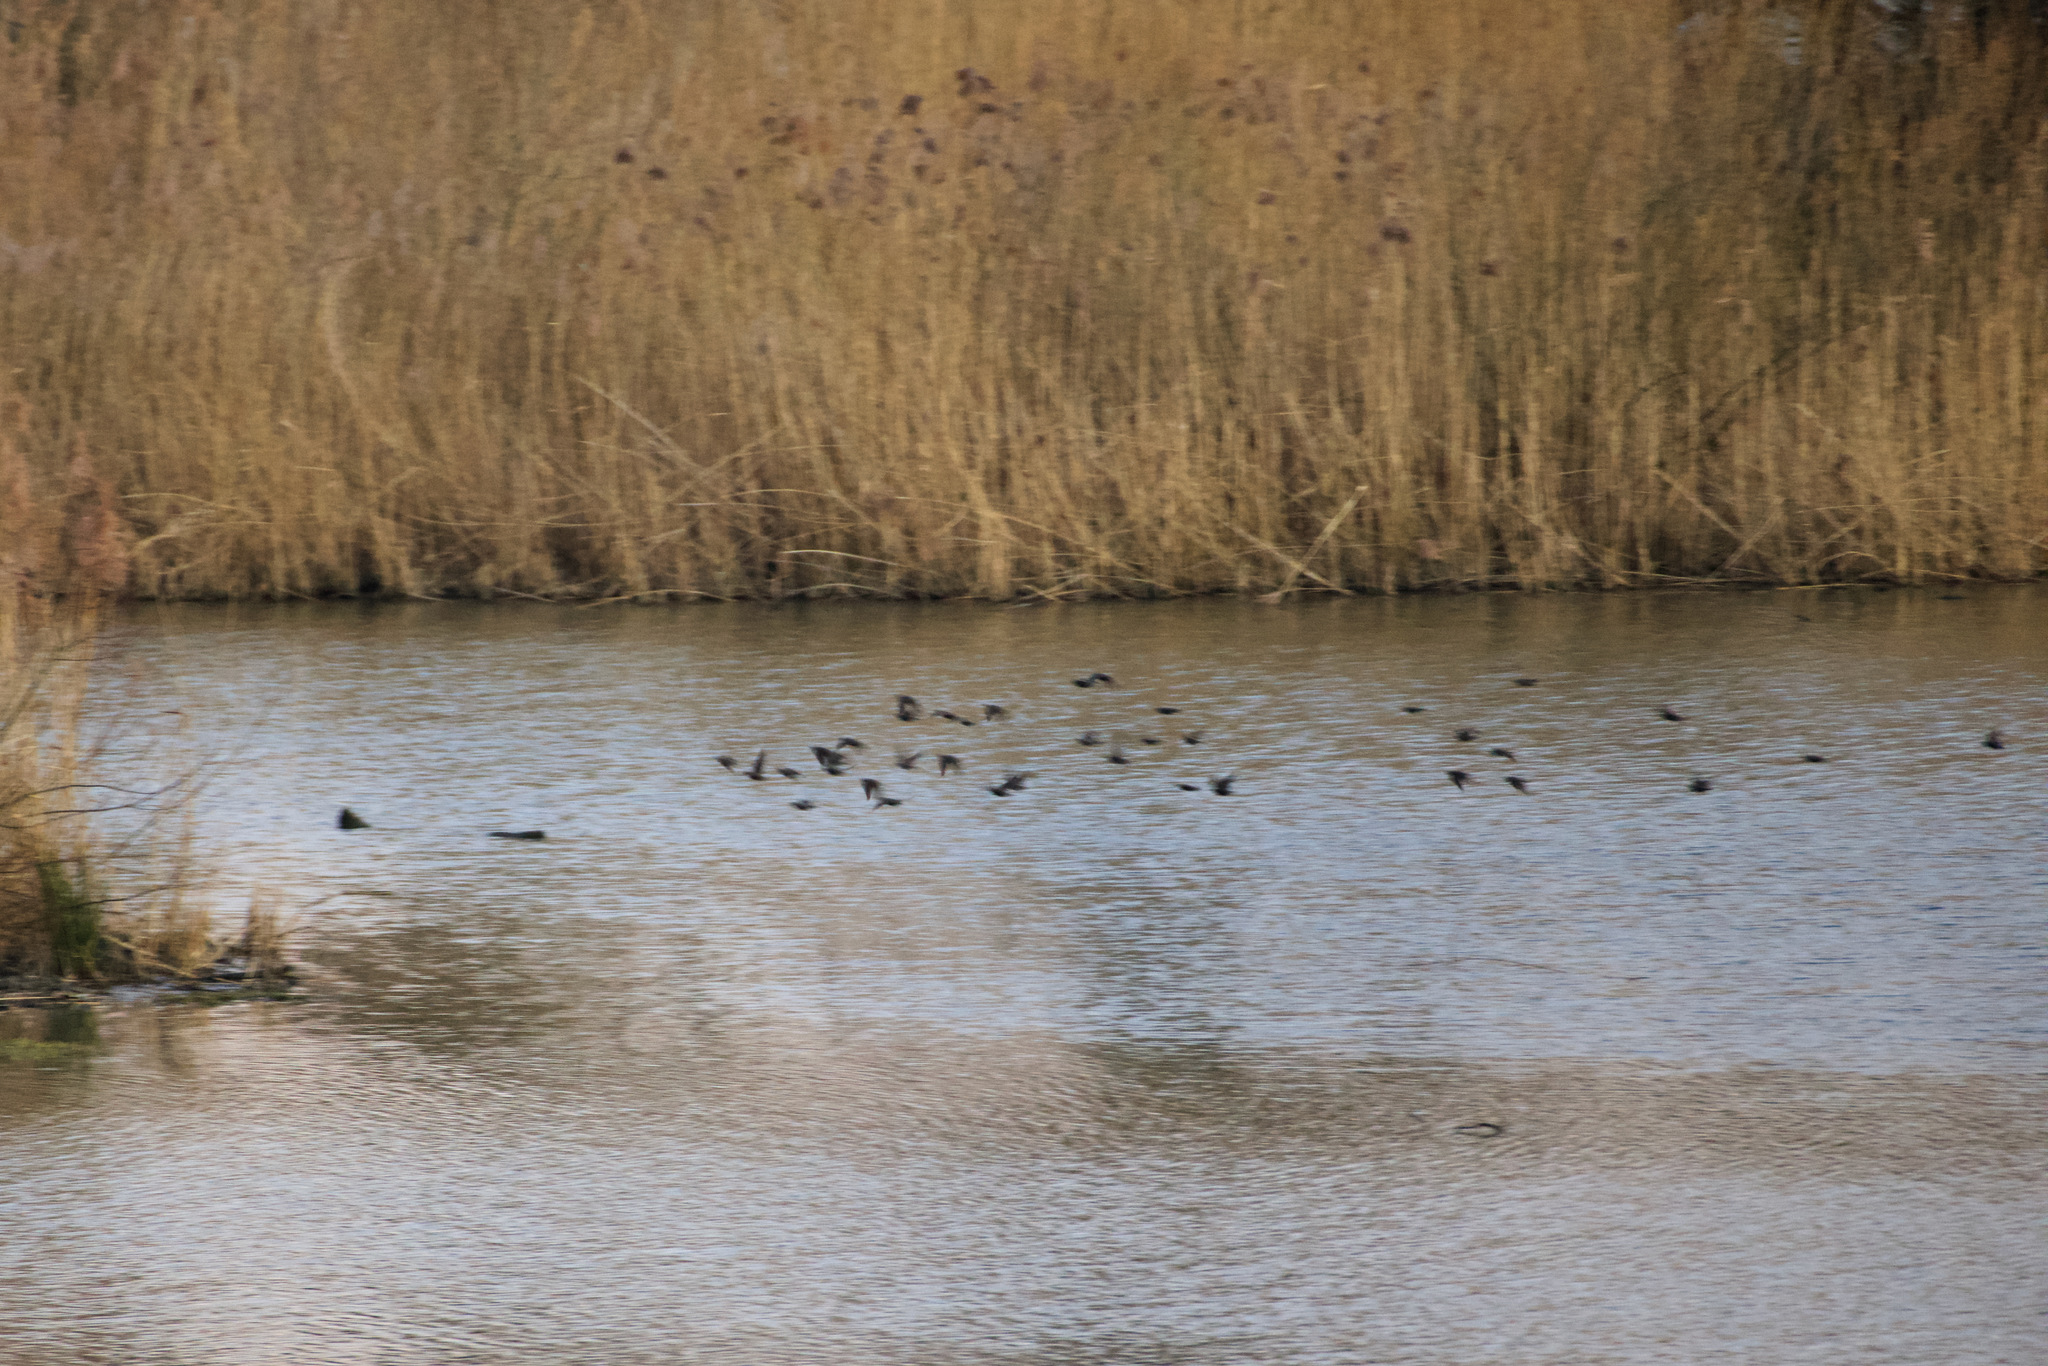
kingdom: Animalia
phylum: Chordata
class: Aves
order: Passeriformes
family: Sturnidae
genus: Sturnus
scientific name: Sturnus vulgaris
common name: Common starling
